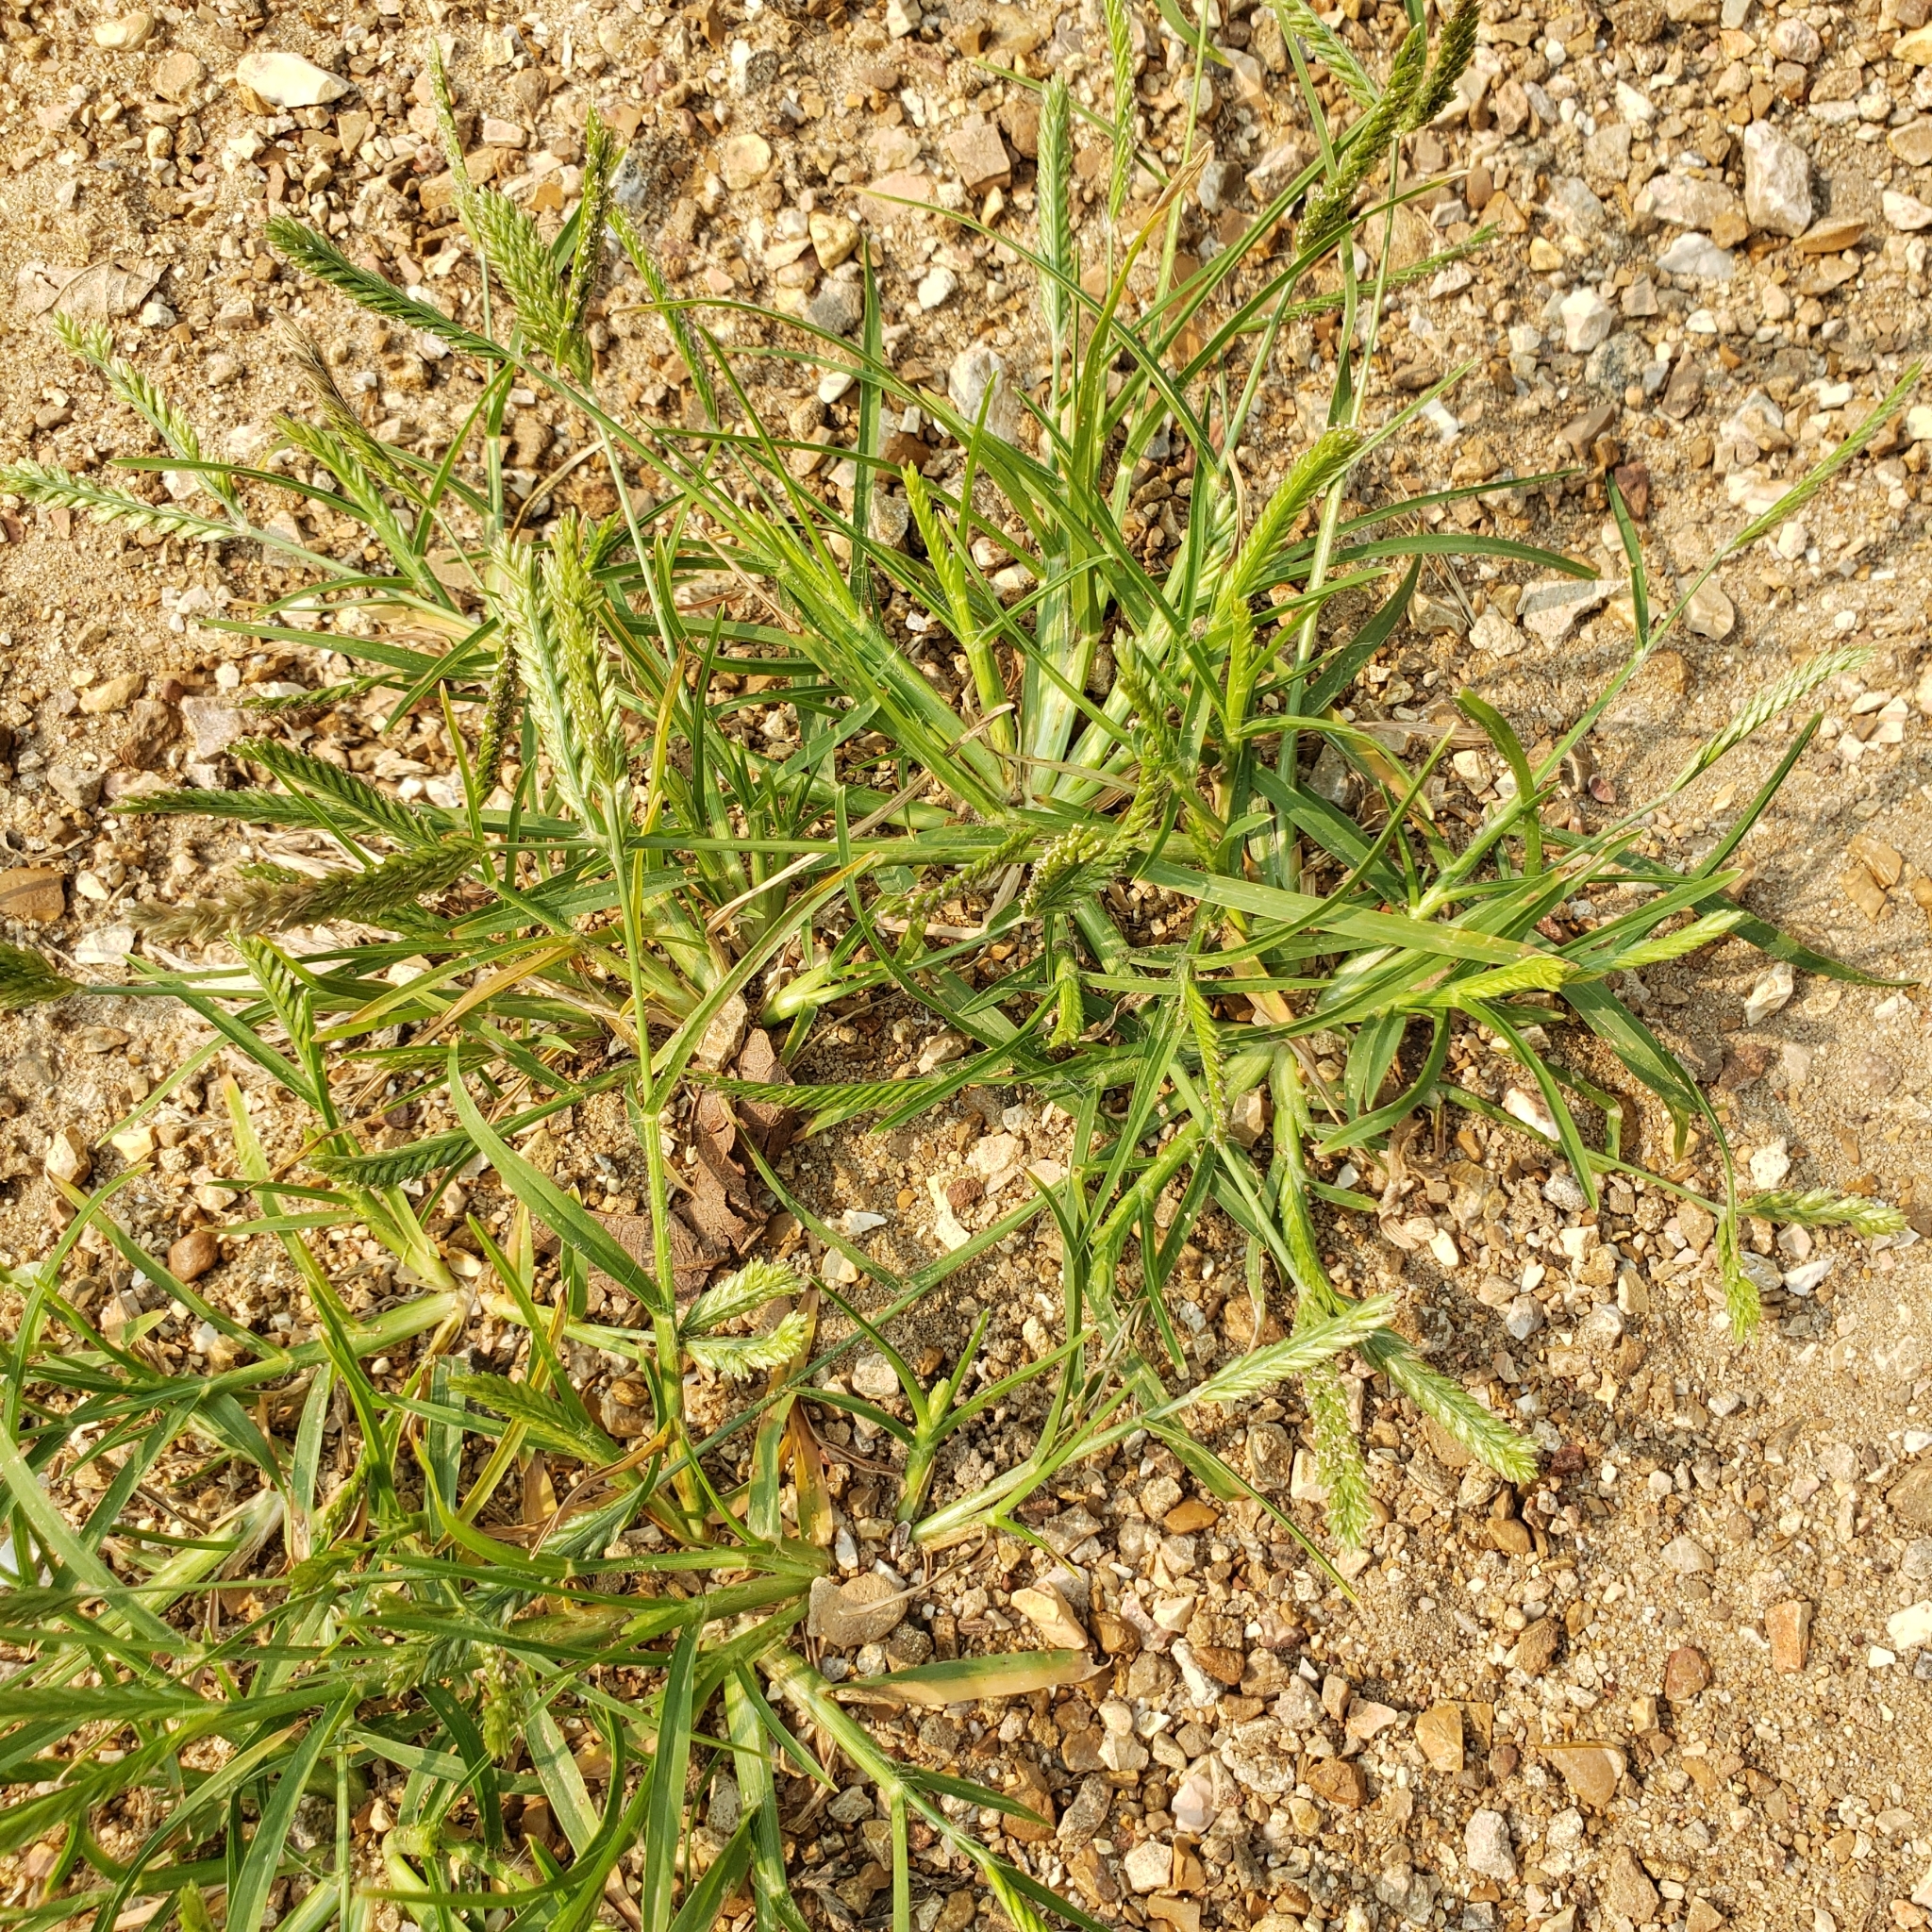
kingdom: Plantae
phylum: Tracheophyta
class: Liliopsida
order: Poales
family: Poaceae
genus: Eleusine
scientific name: Eleusine indica
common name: Yard-grass
